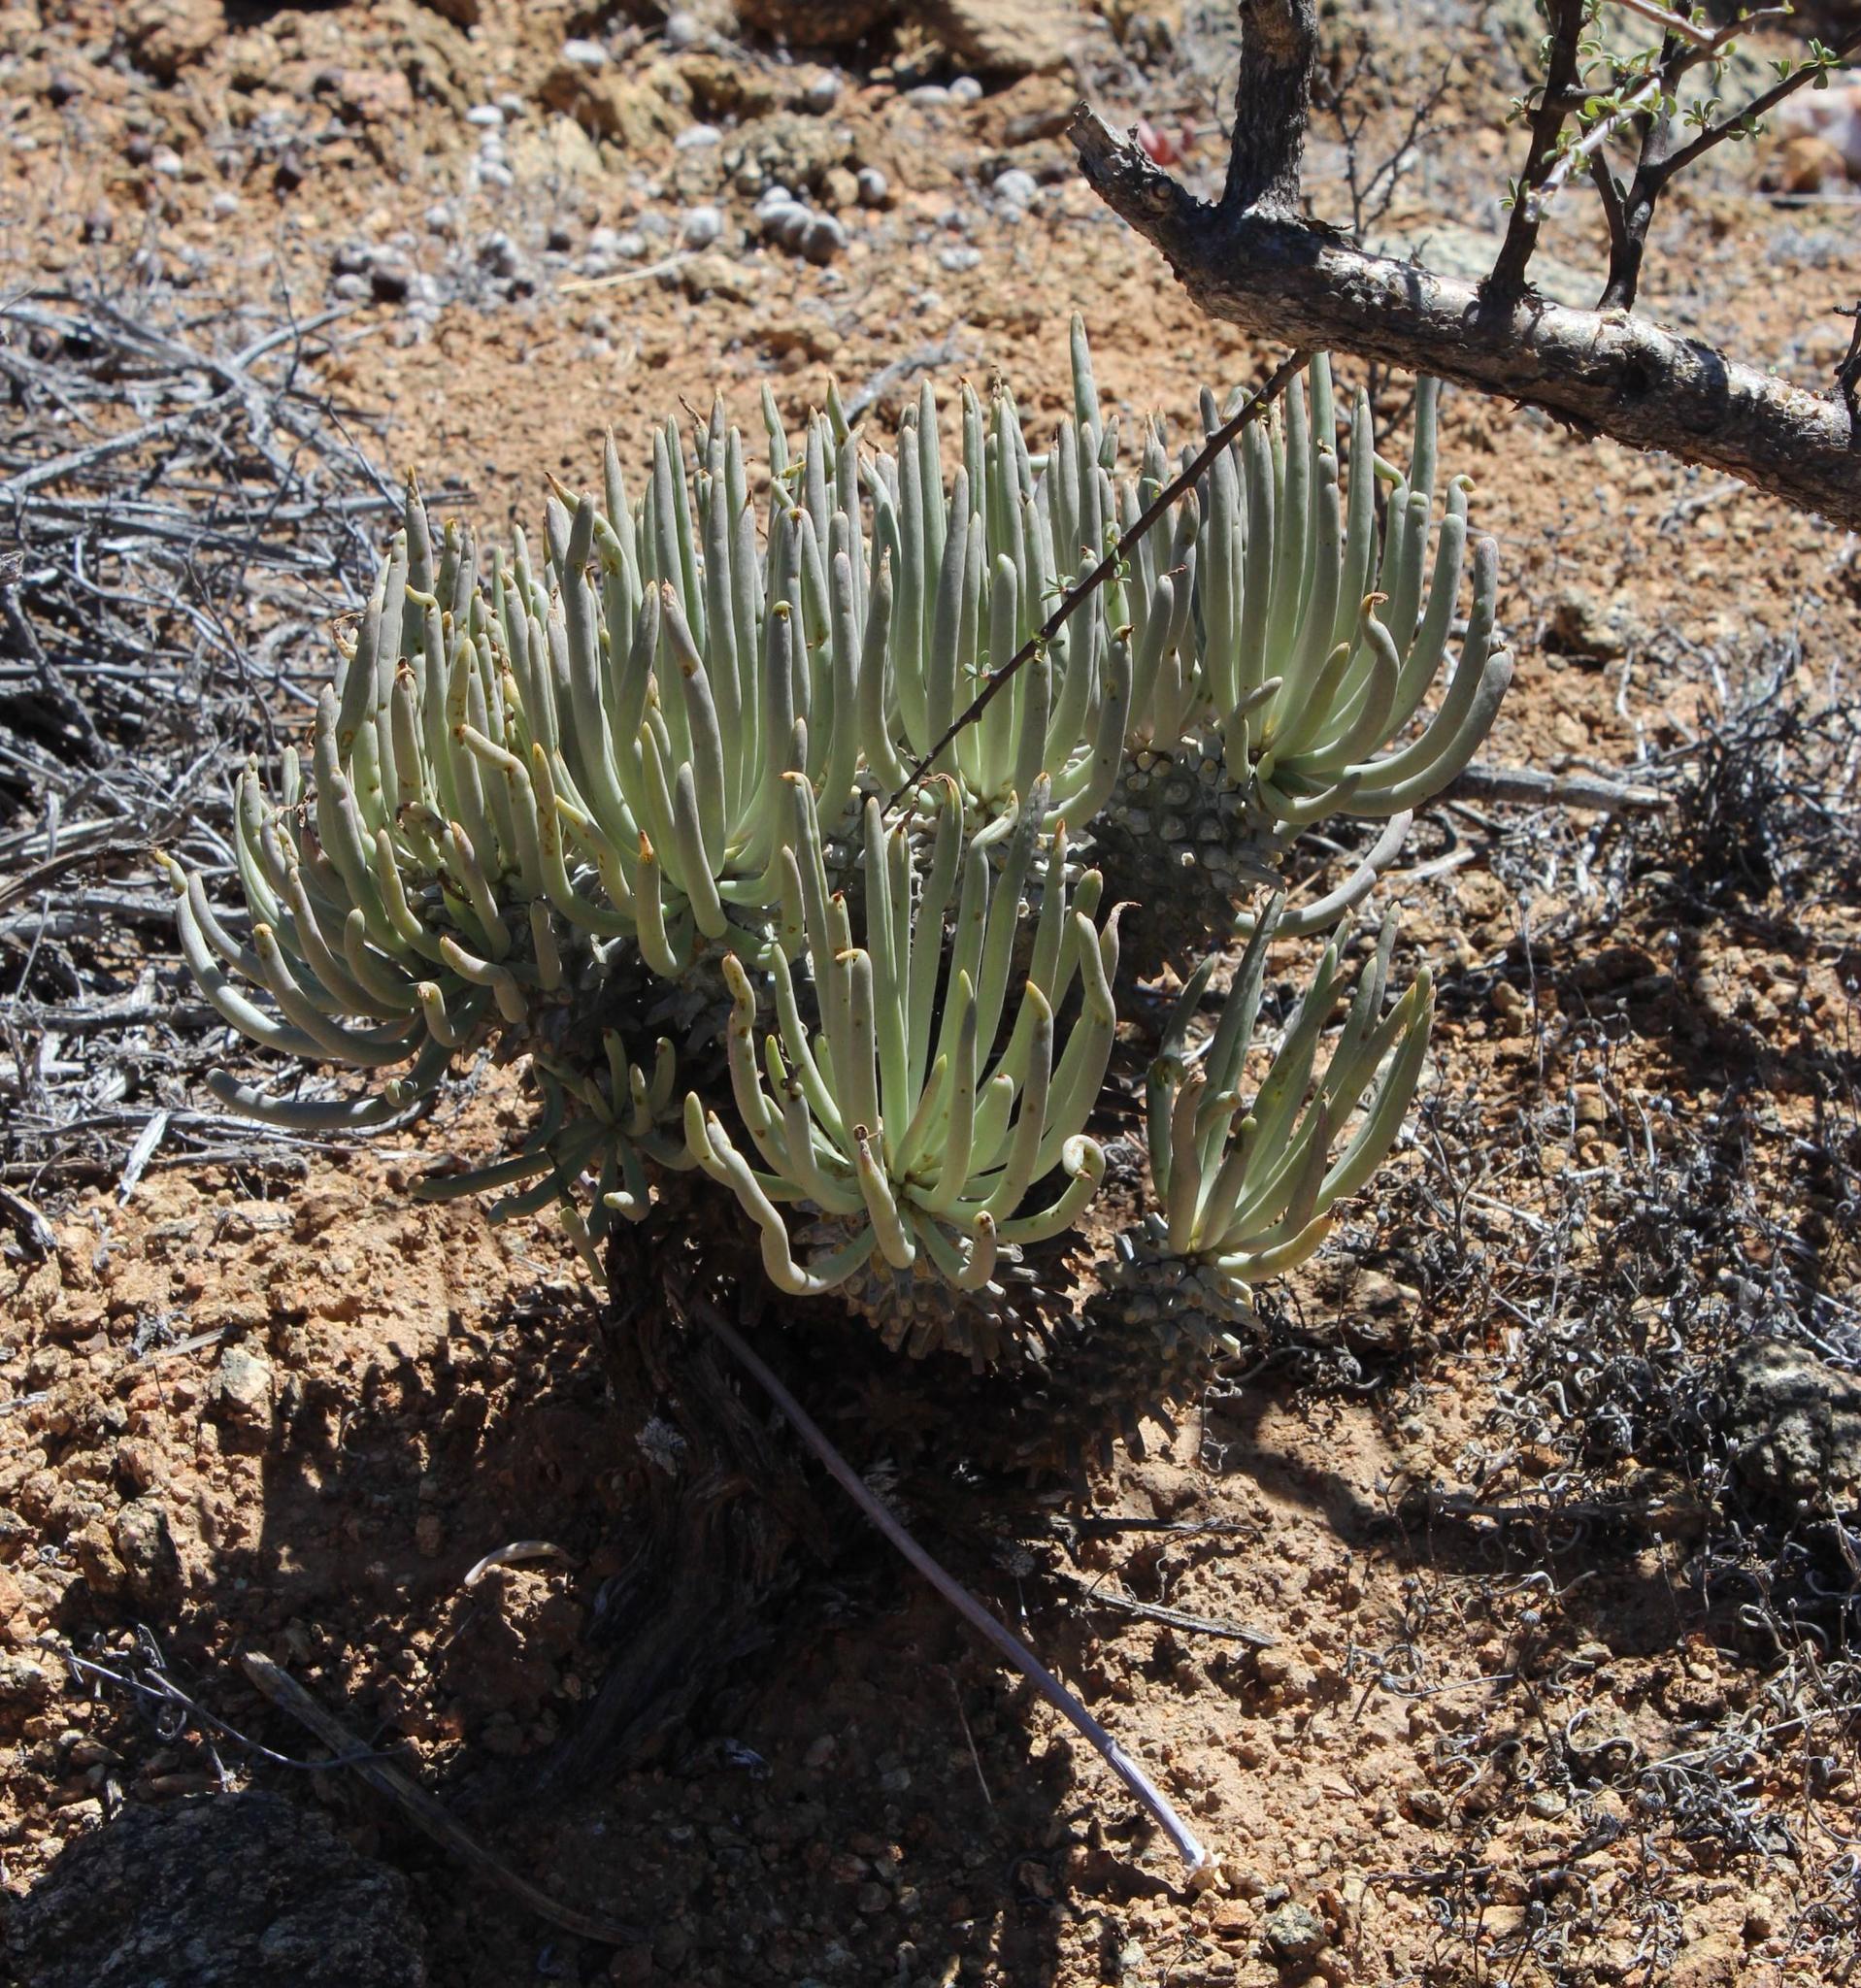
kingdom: Plantae
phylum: Tracheophyta
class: Magnoliopsida
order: Saxifragales
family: Crassulaceae
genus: Tylecodon
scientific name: Tylecodon wallichii
